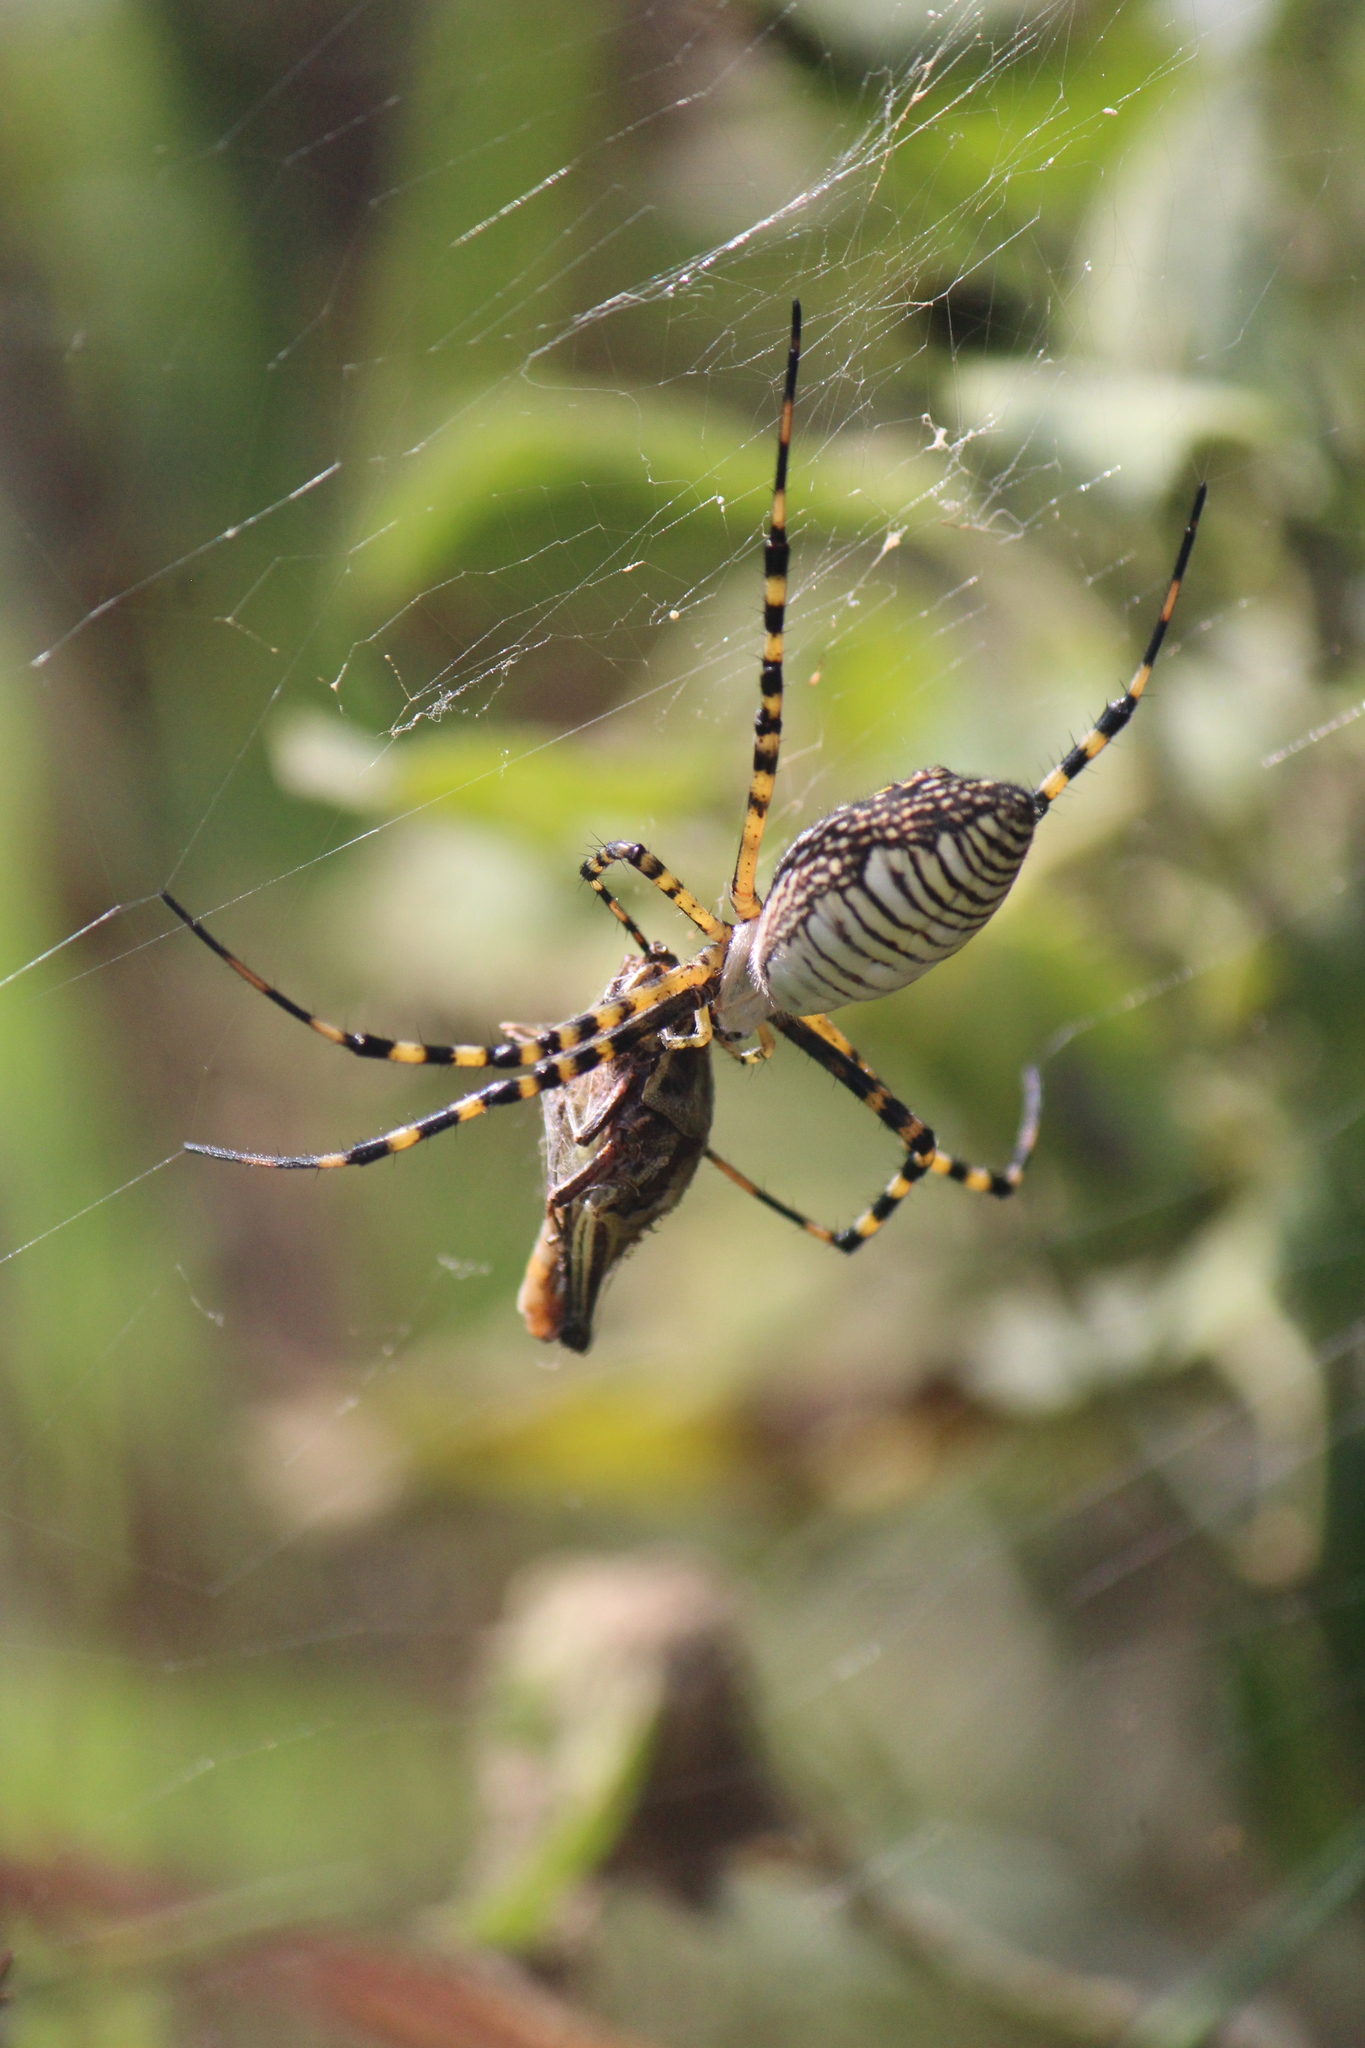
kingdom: Animalia
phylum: Arthropoda
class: Arachnida
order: Araneae
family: Araneidae
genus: Argiope
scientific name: Argiope trifasciata
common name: Banded garden spider
